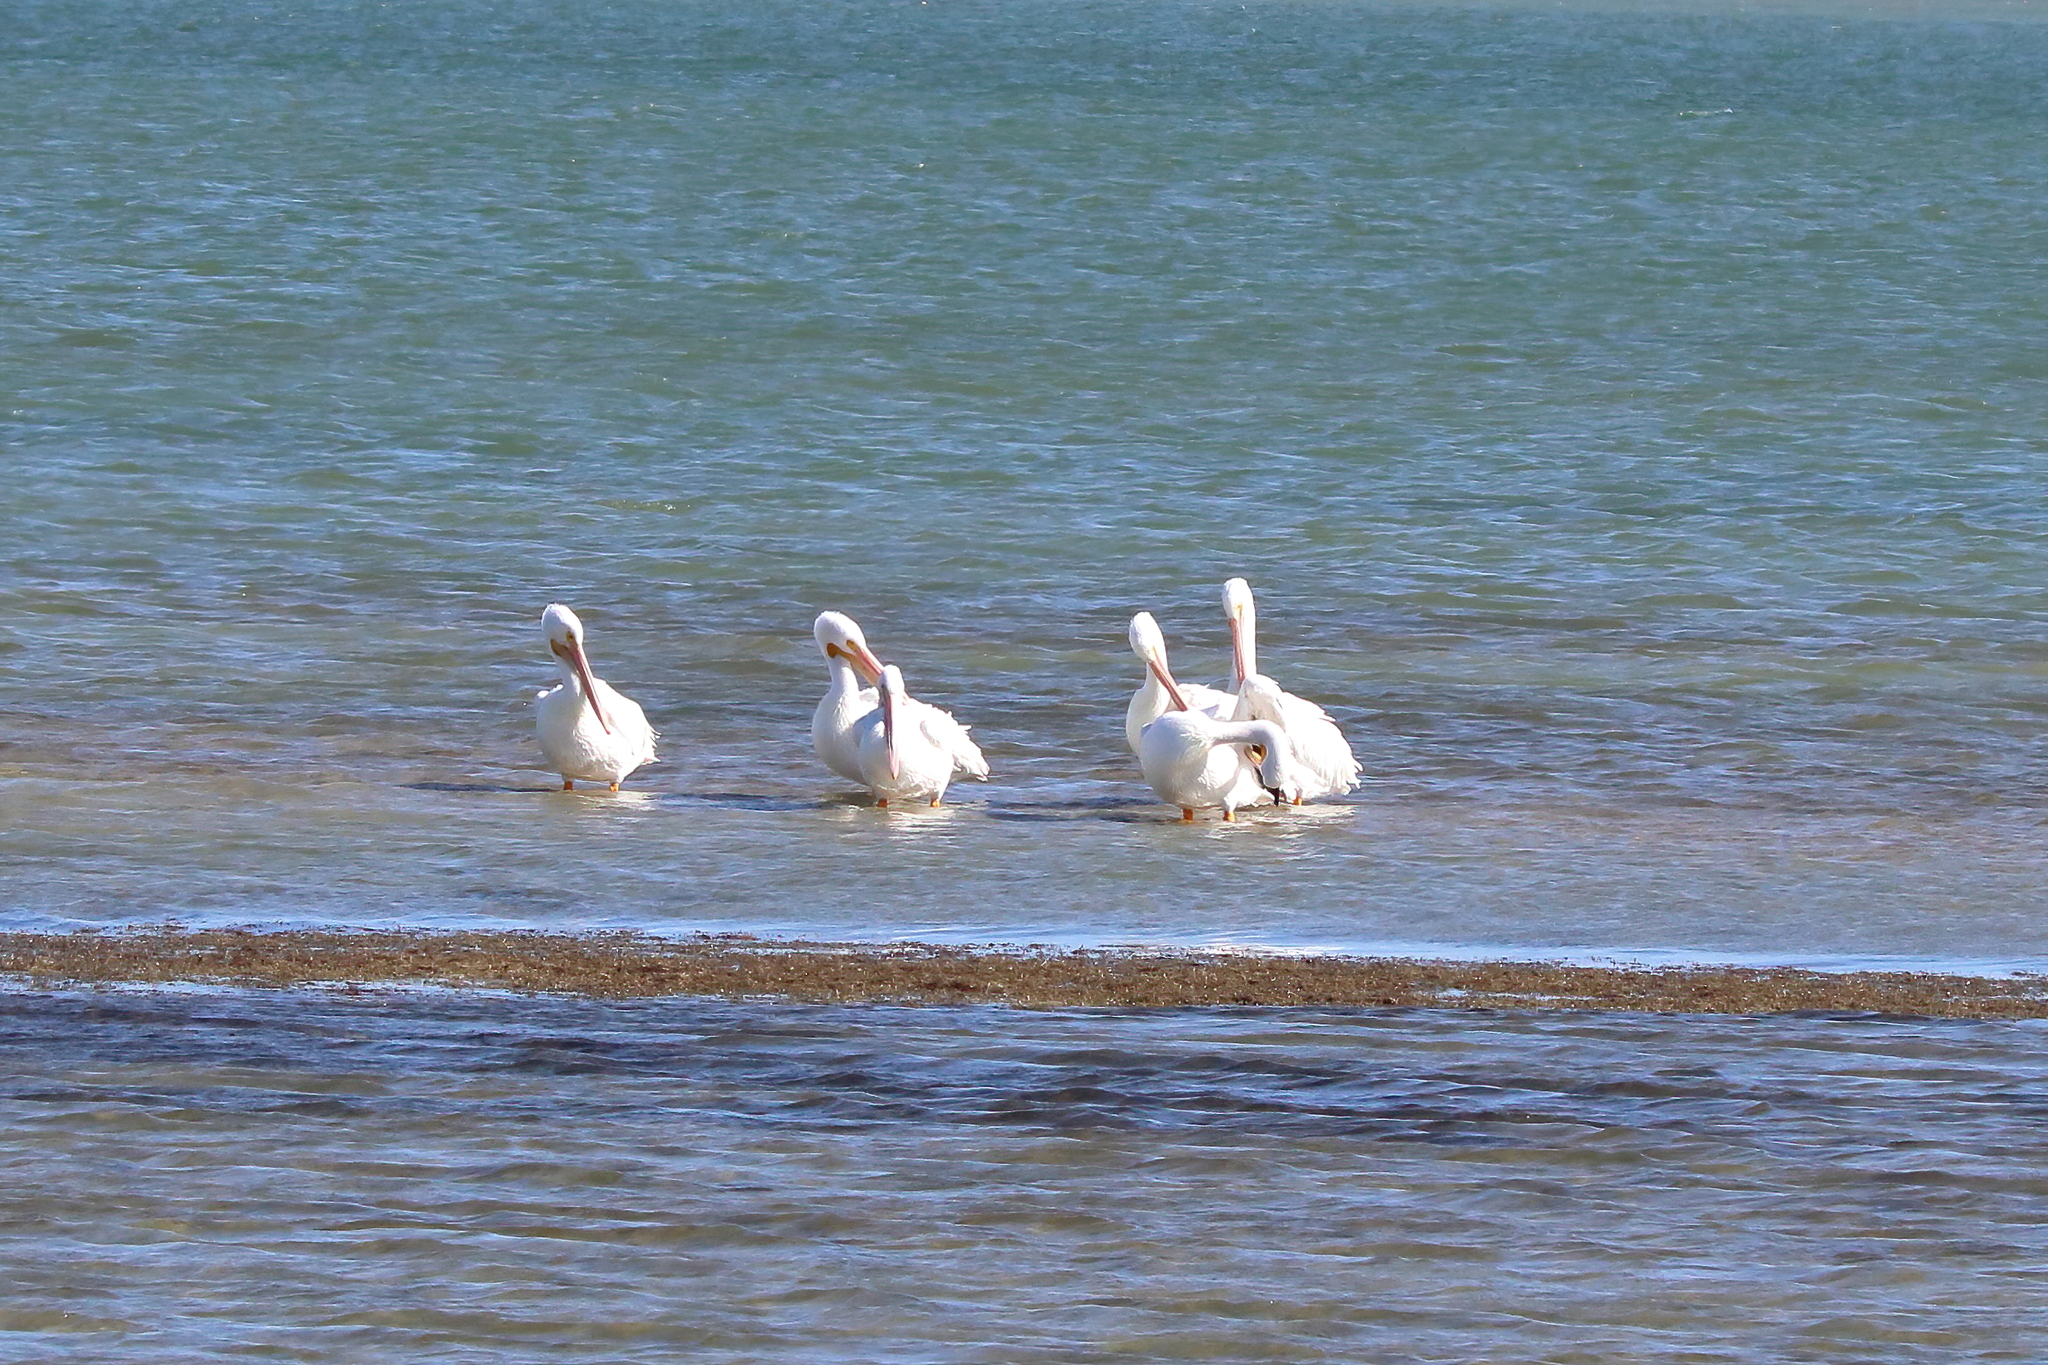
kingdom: Animalia
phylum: Chordata
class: Aves
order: Pelecaniformes
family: Pelecanidae
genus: Pelecanus
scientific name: Pelecanus erythrorhynchos
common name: American white pelican
